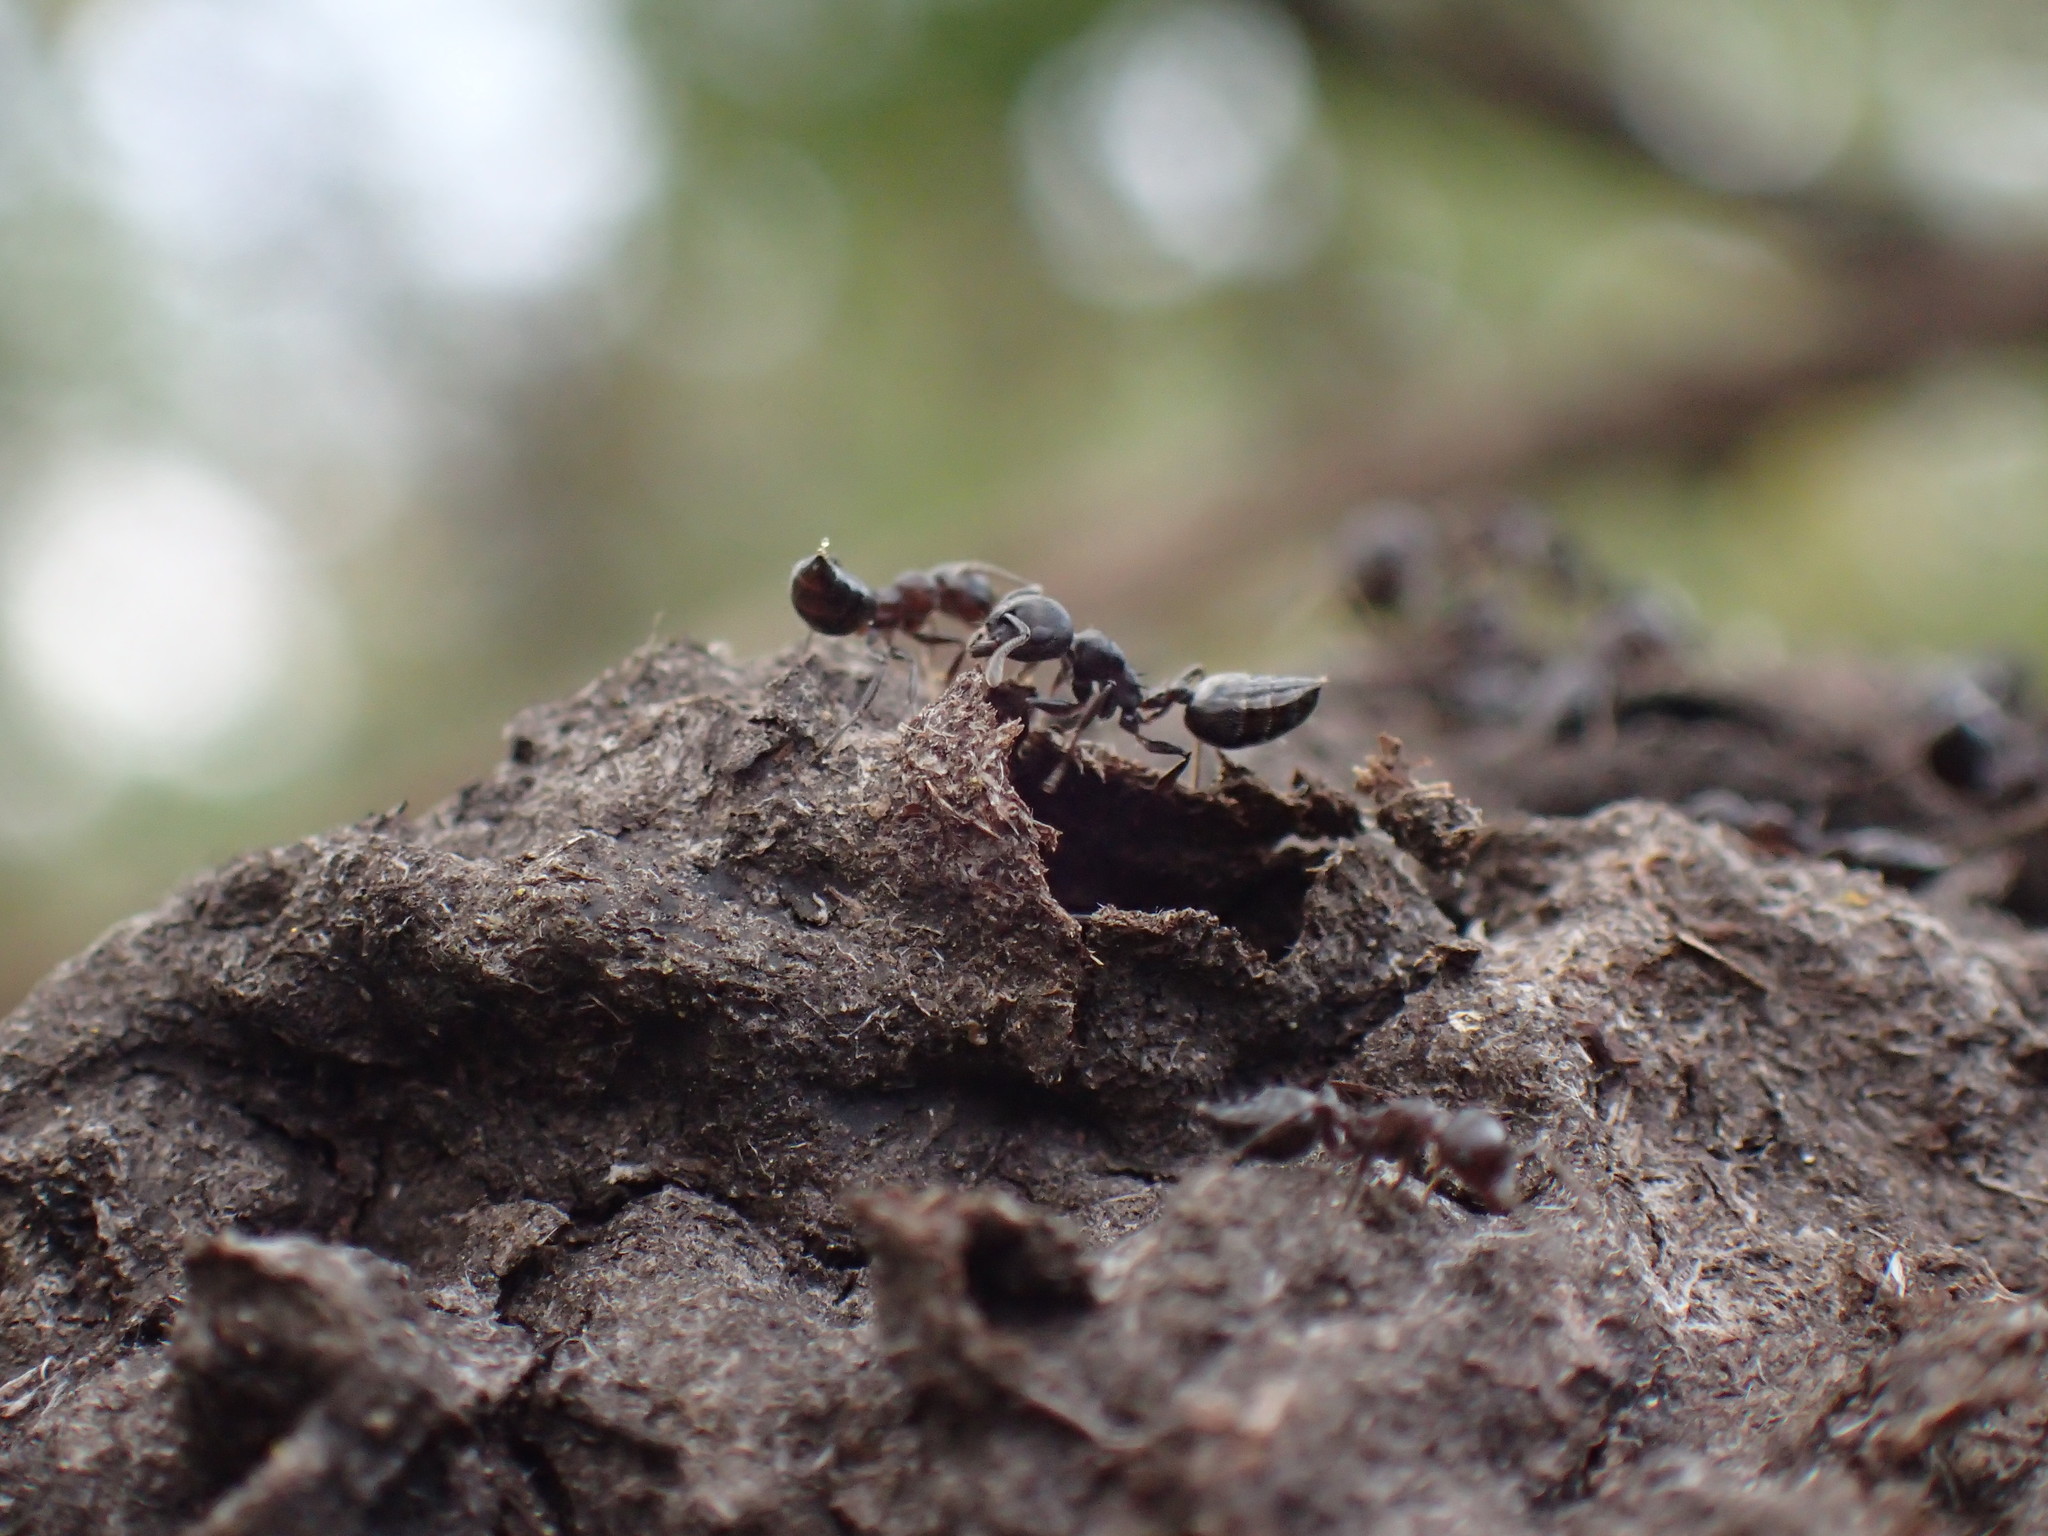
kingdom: Animalia
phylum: Arthropoda
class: Insecta
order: Hymenoptera
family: Formicidae
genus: Crematogaster
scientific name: Crematogaster peringueyi
